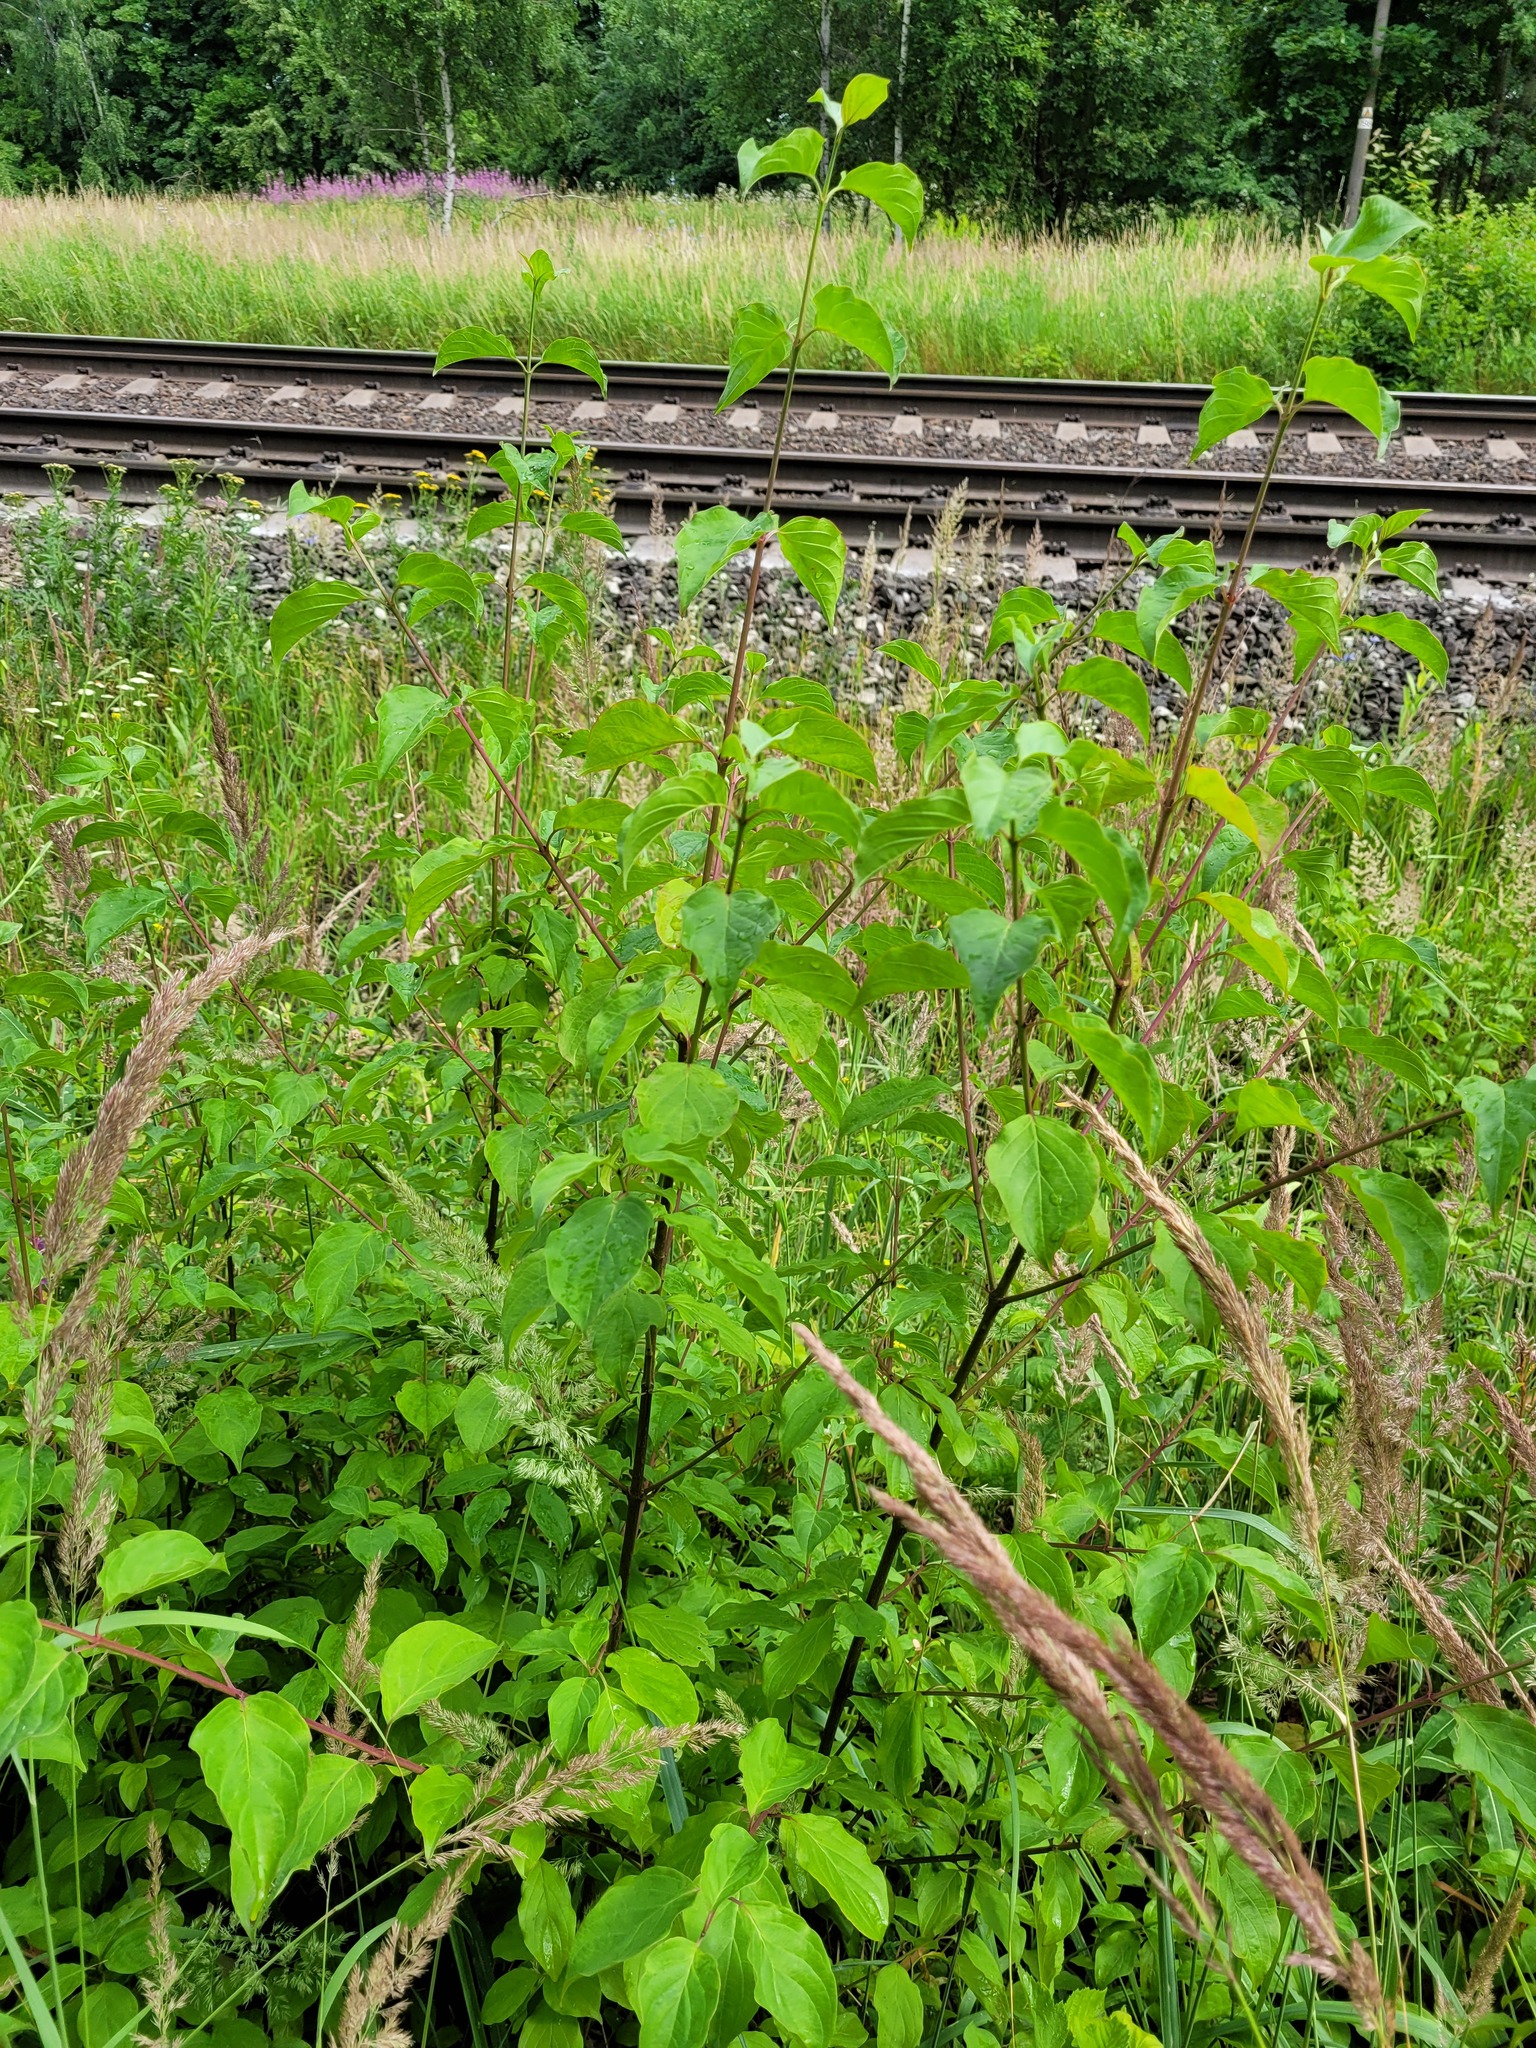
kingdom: Plantae
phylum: Tracheophyta
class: Magnoliopsida
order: Cornales
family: Cornaceae
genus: Cornus
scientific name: Cornus sanguinea
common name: Dogwood
